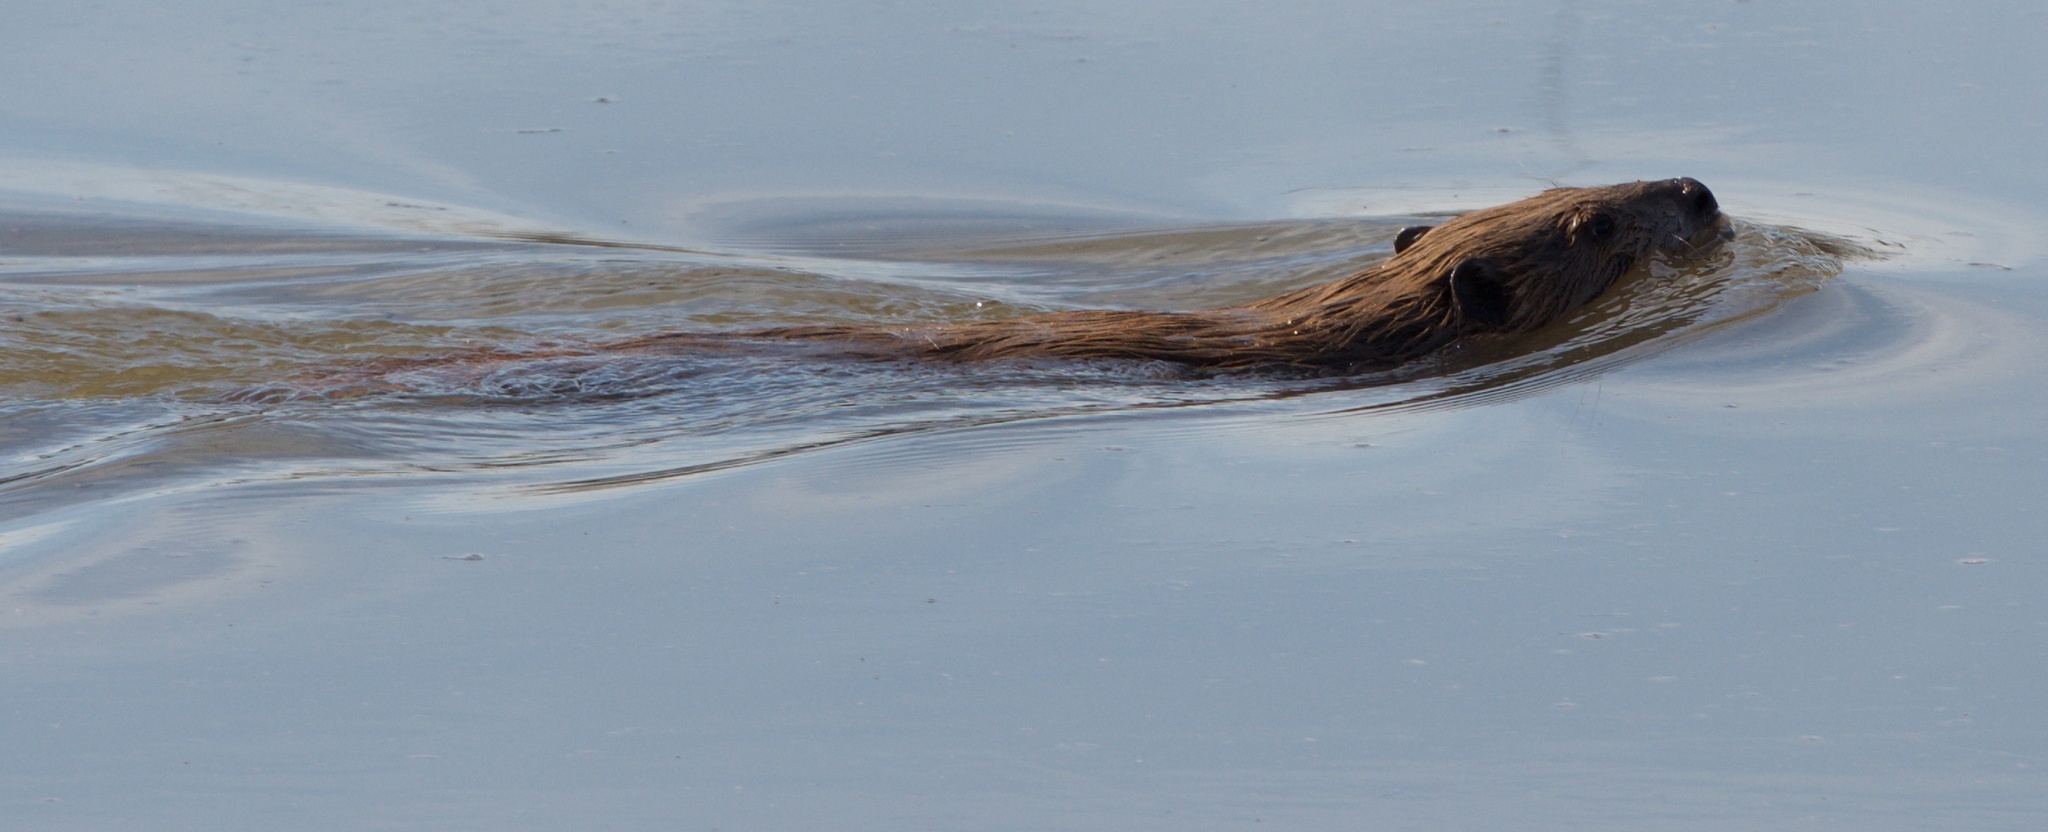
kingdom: Animalia
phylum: Chordata
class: Mammalia
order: Rodentia
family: Castoridae
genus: Castor
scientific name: Castor canadensis
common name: American beaver
